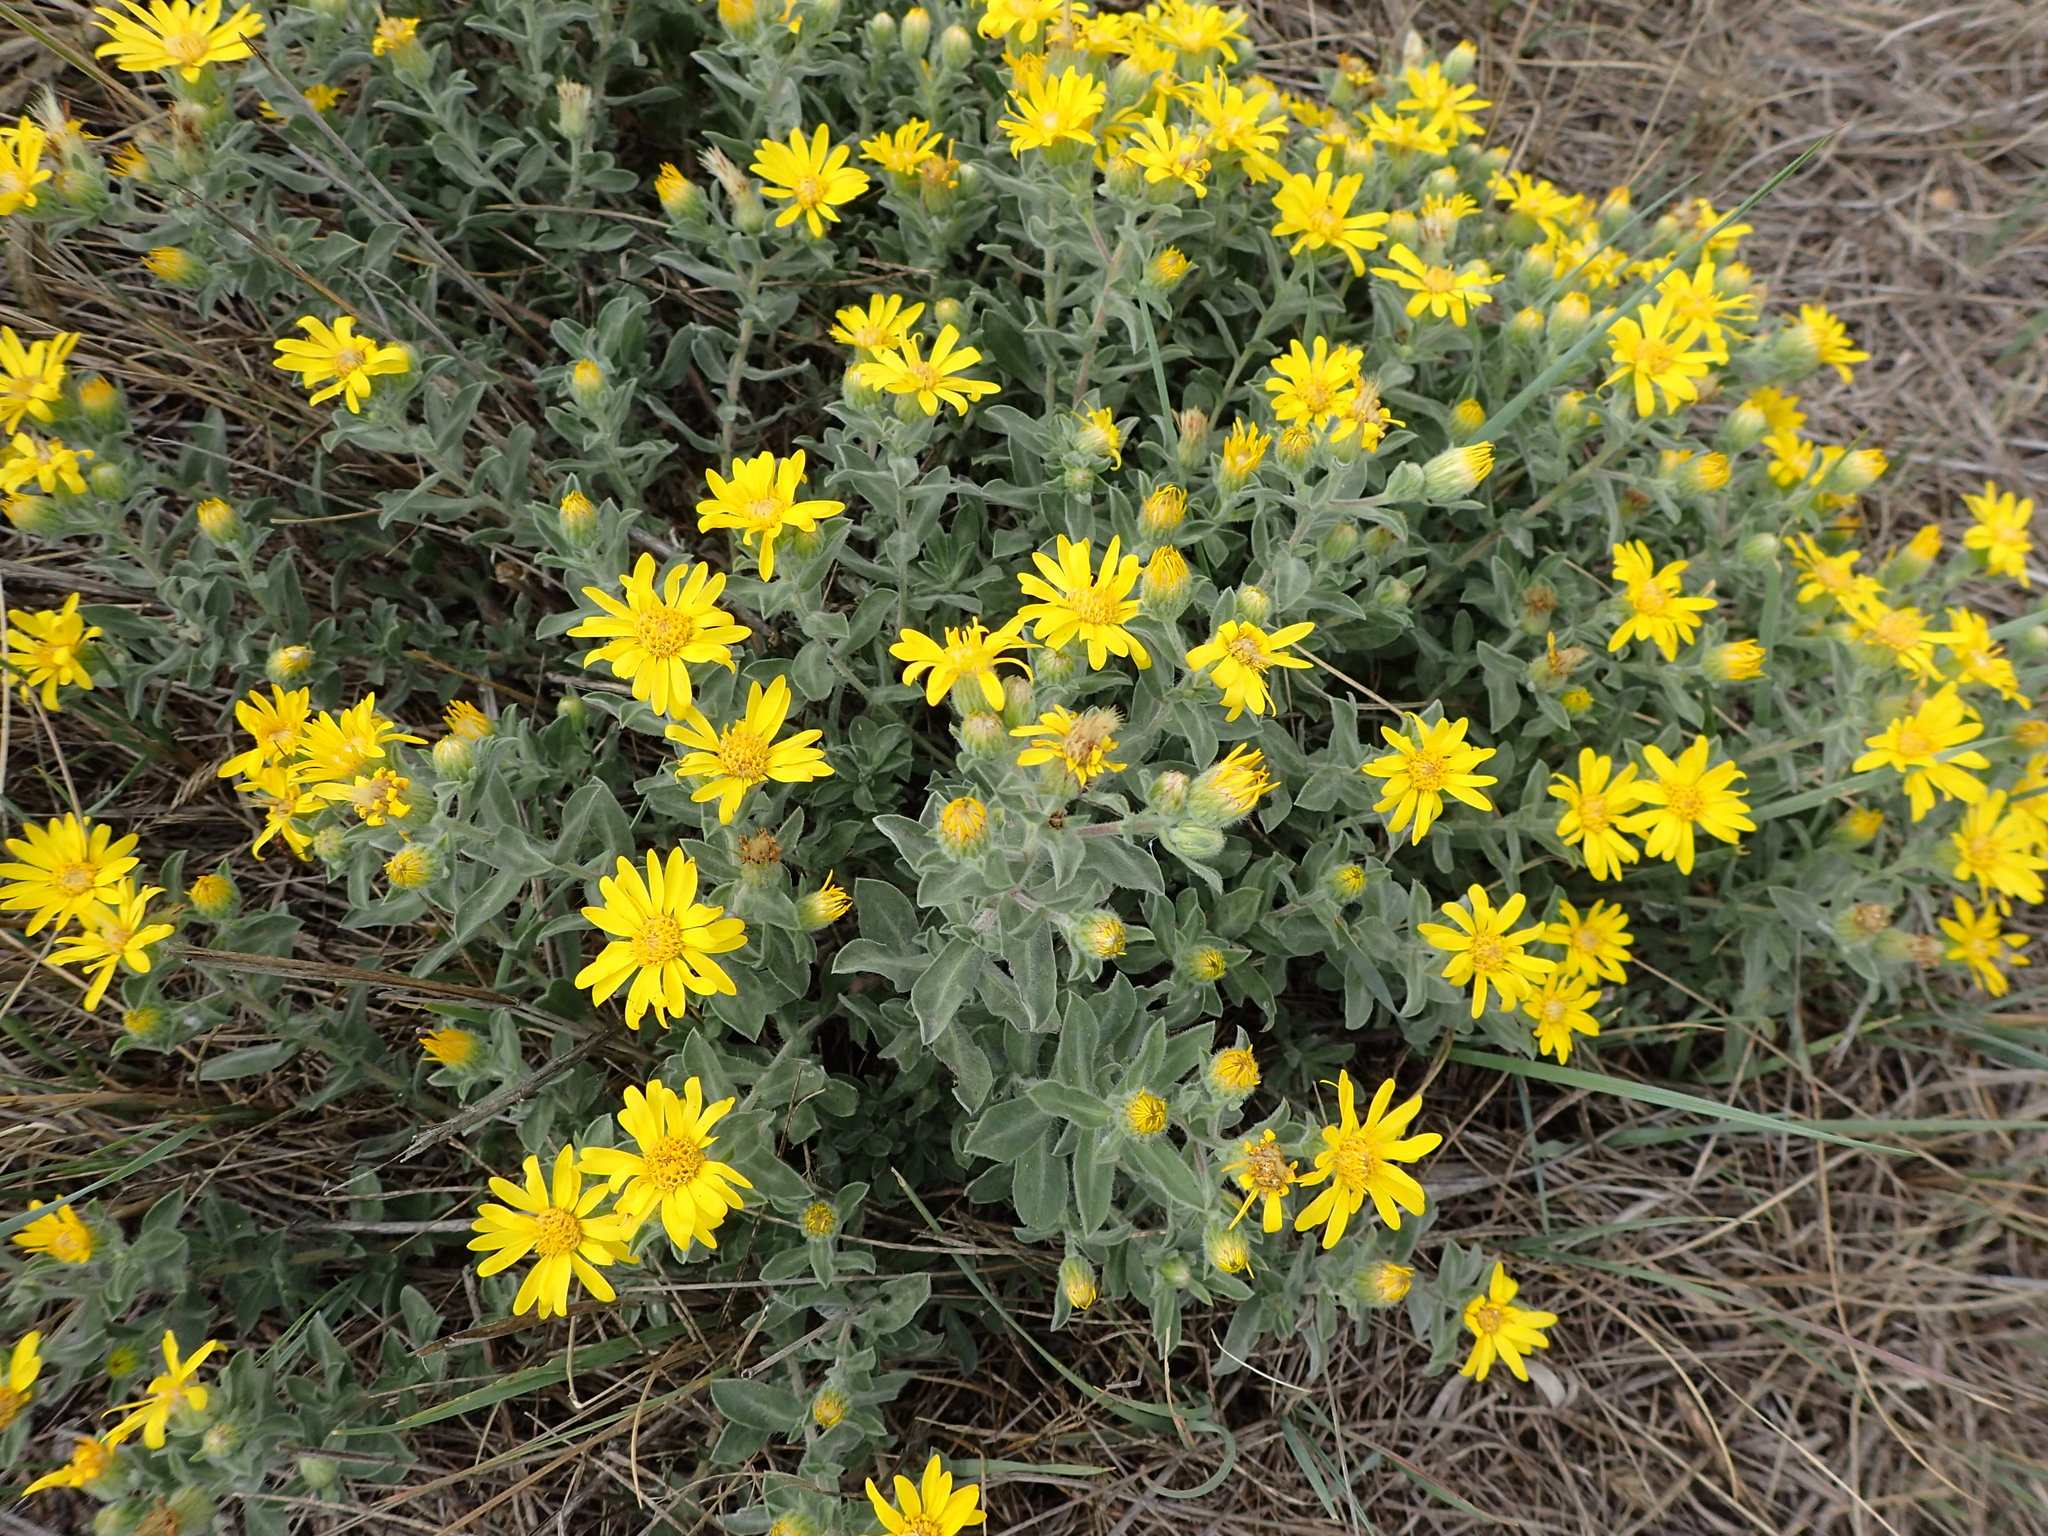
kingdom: Plantae
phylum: Tracheophyta
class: Magnoliopsida
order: Asterales
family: Asteraceae
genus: Heterotheca
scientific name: Heterotheca villosa
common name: Hairy false goldenaster
